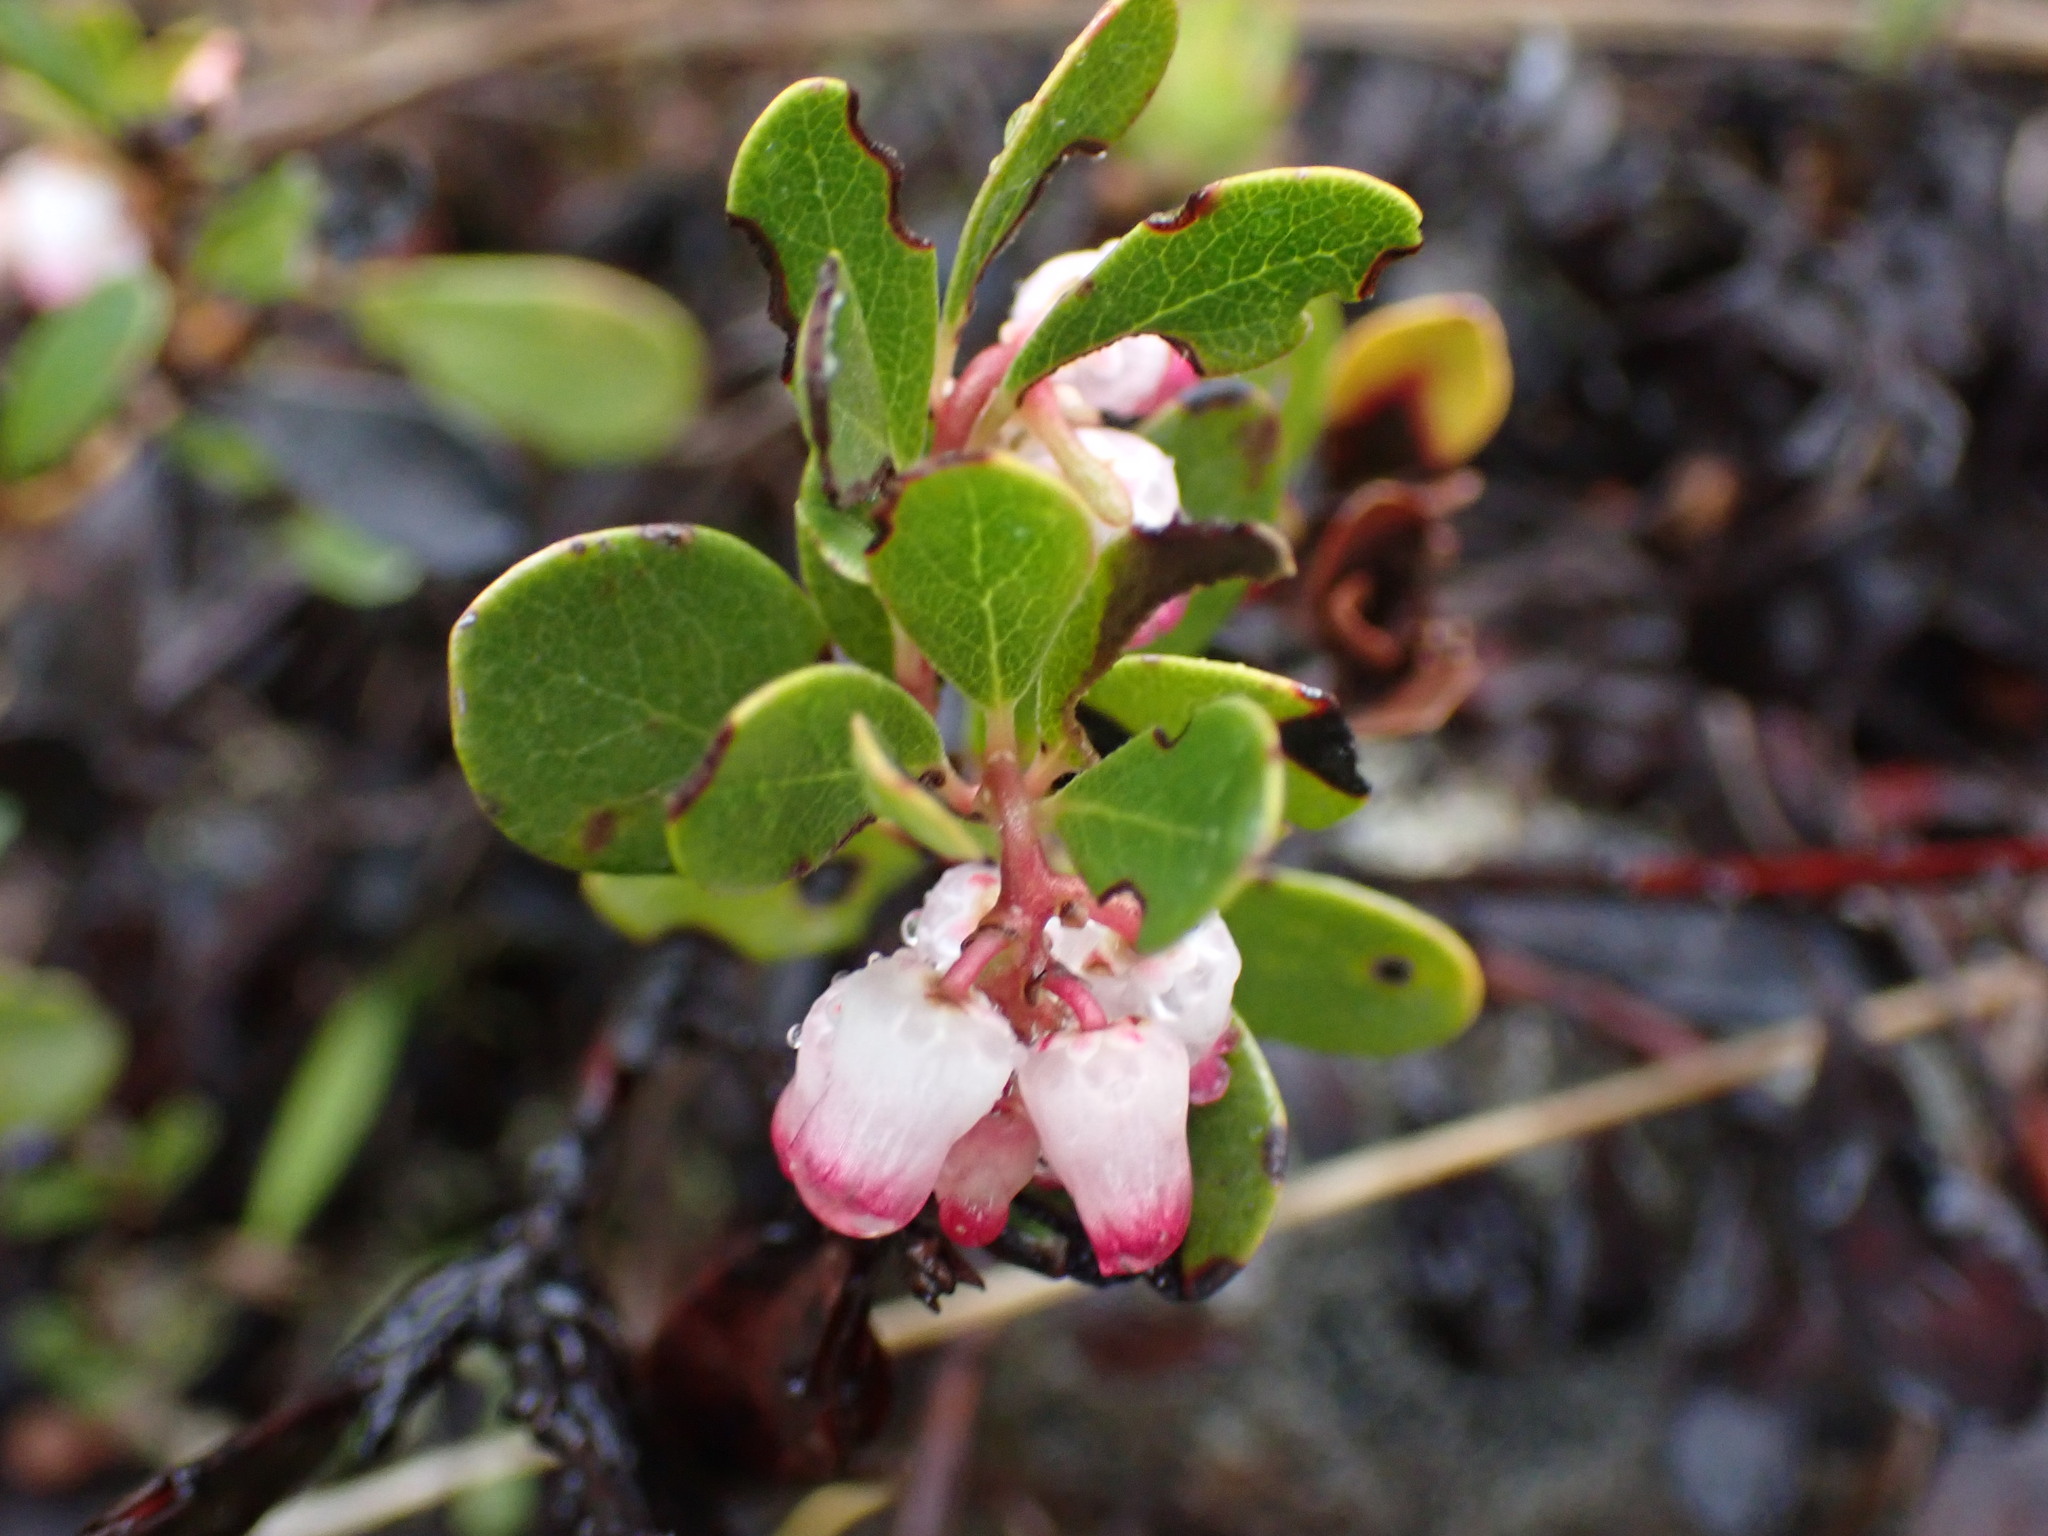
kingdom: Plantae
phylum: Tracheophyta
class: Magnoliopsida
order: Ericales
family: Ericaceae
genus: Arctostaphylos
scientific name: Arctostaphylos uva-ursi
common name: Bearberry
